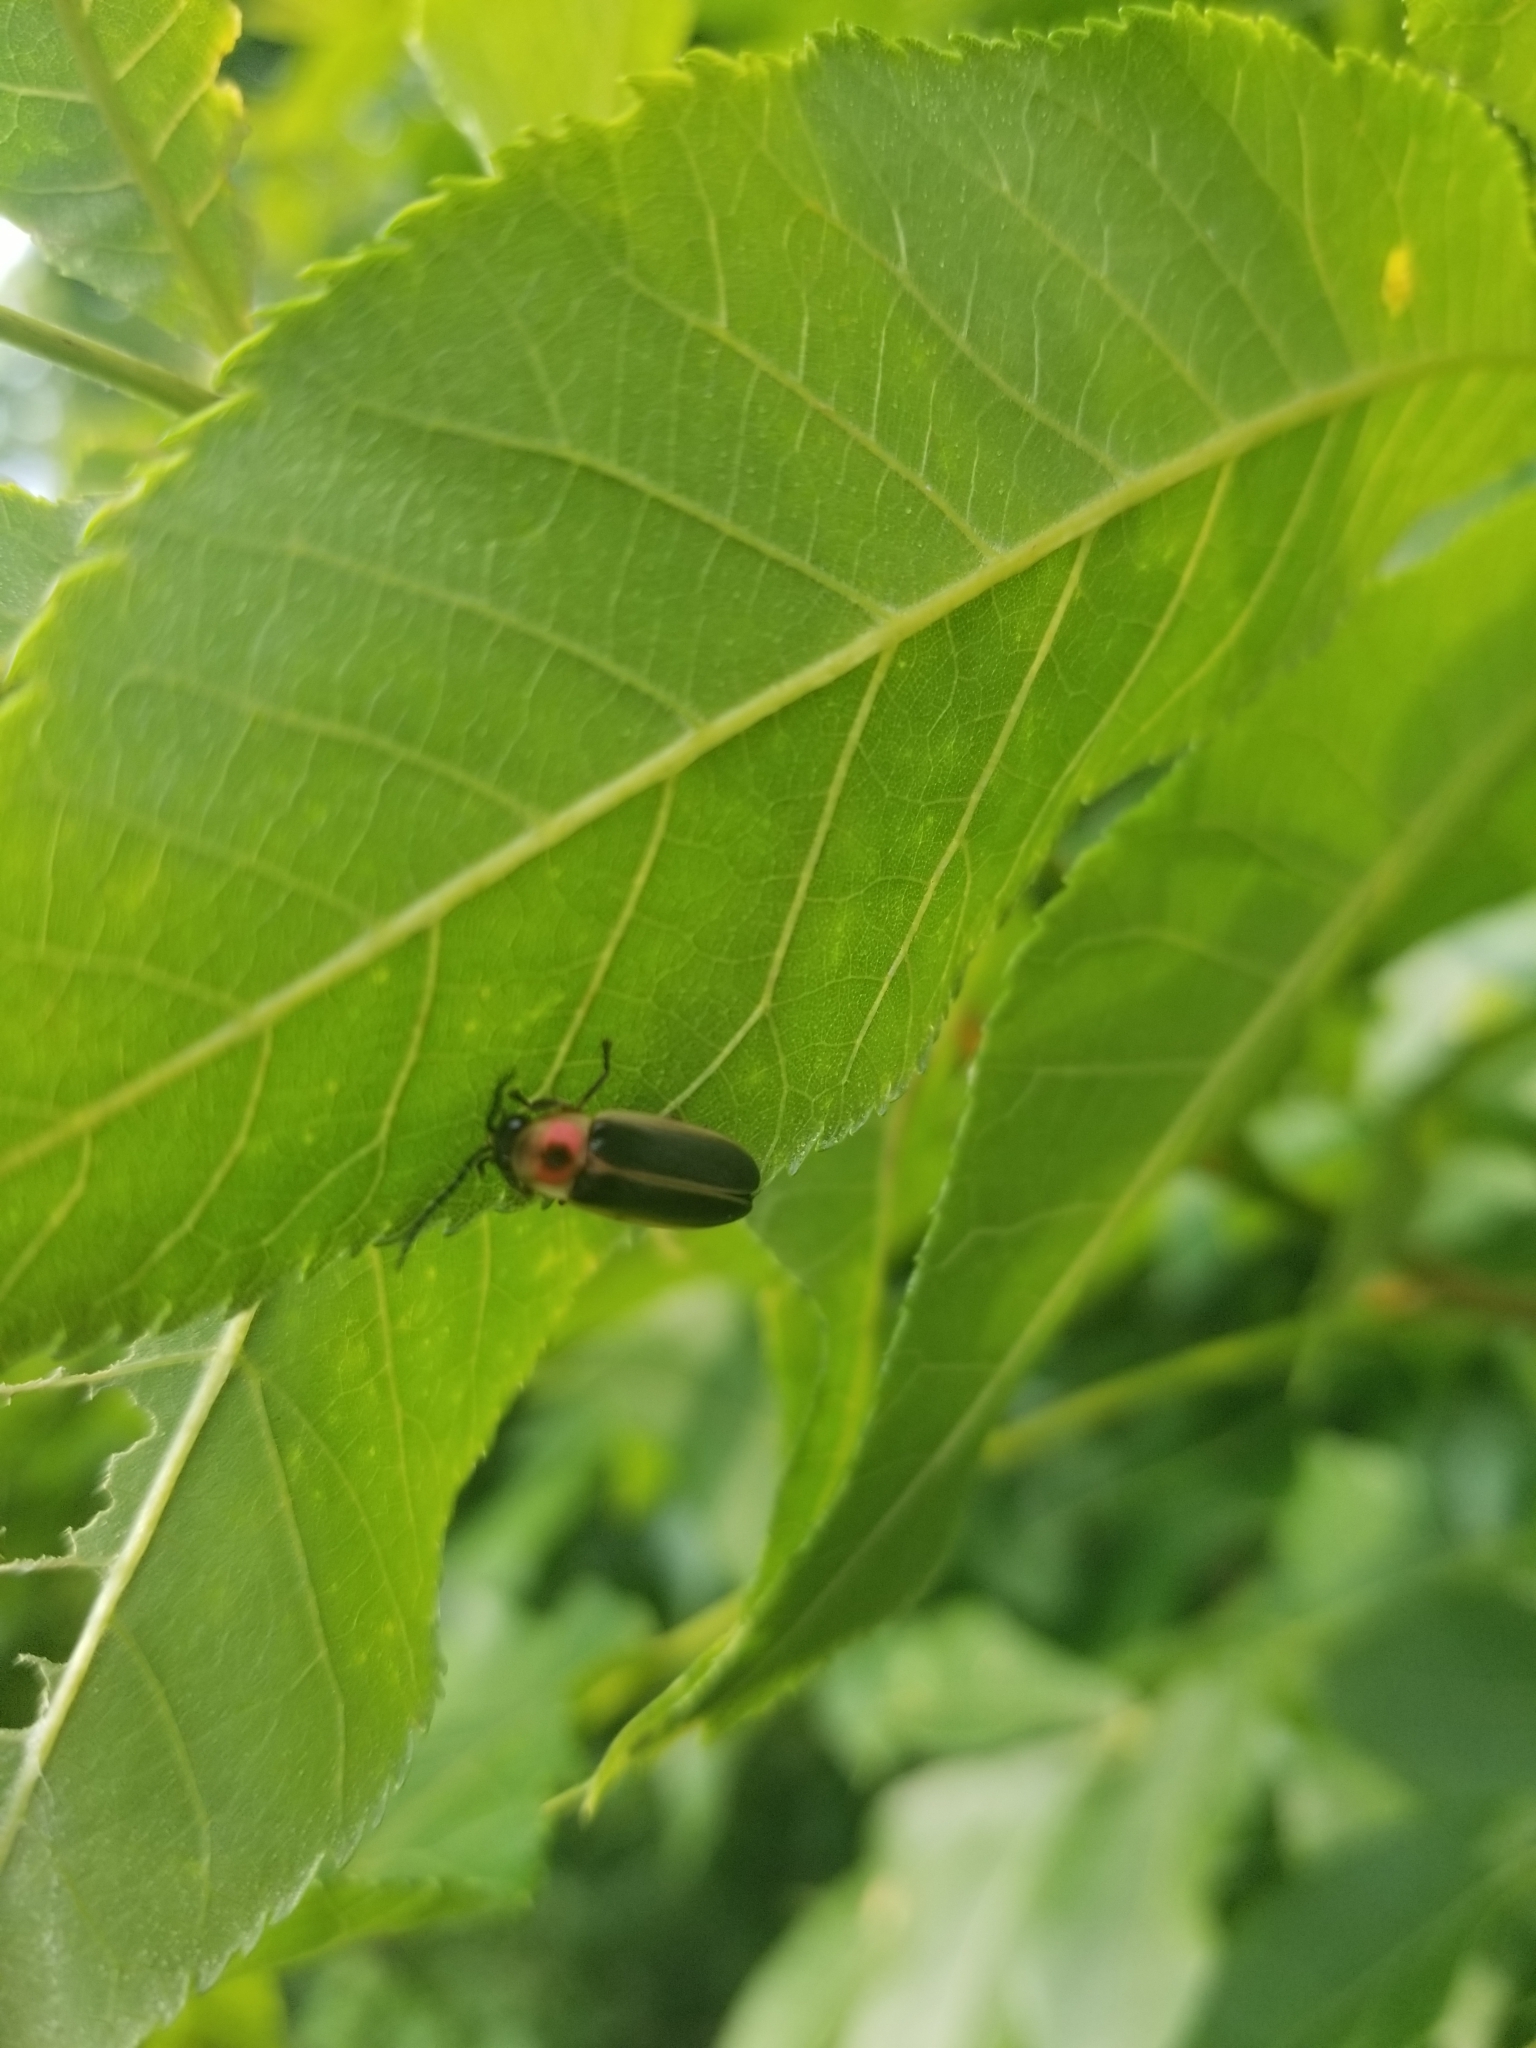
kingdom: Animalia
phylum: Arthropoda
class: Insecta
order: Coleoptera
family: Lampyridae
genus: Photinus
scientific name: Photinus
